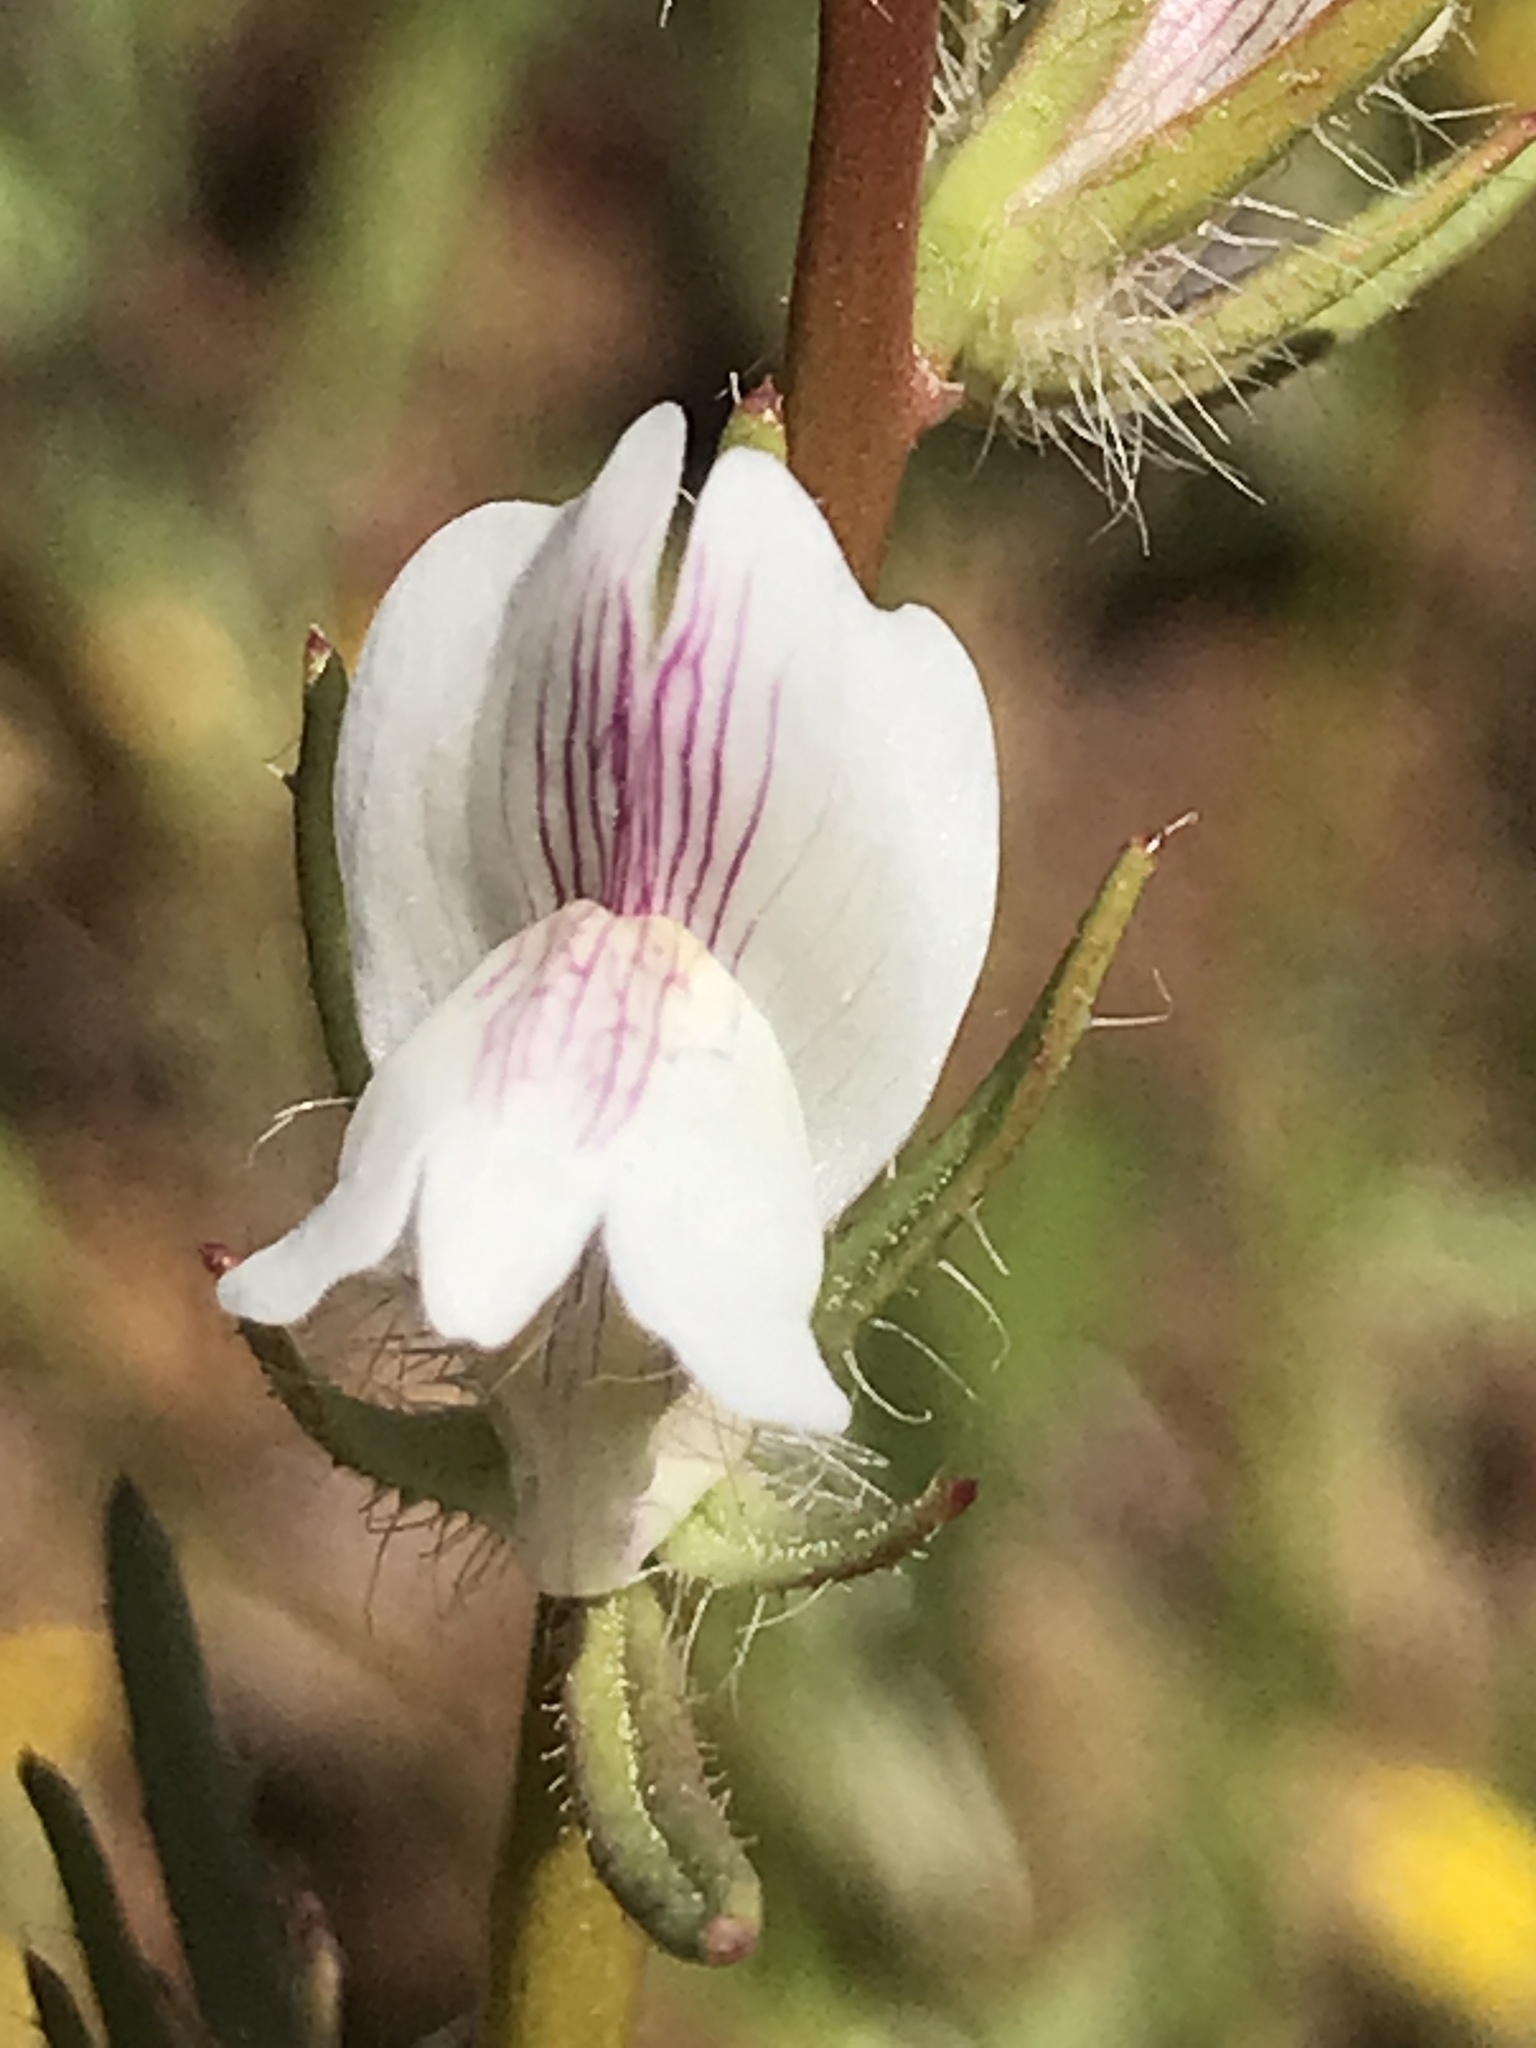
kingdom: Plantae
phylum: Tracheophyta
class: Magnoliopsida
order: Lamiales
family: Plantaginaceae
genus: Misopates
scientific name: Misopates orontium
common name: Weasel's-snout
